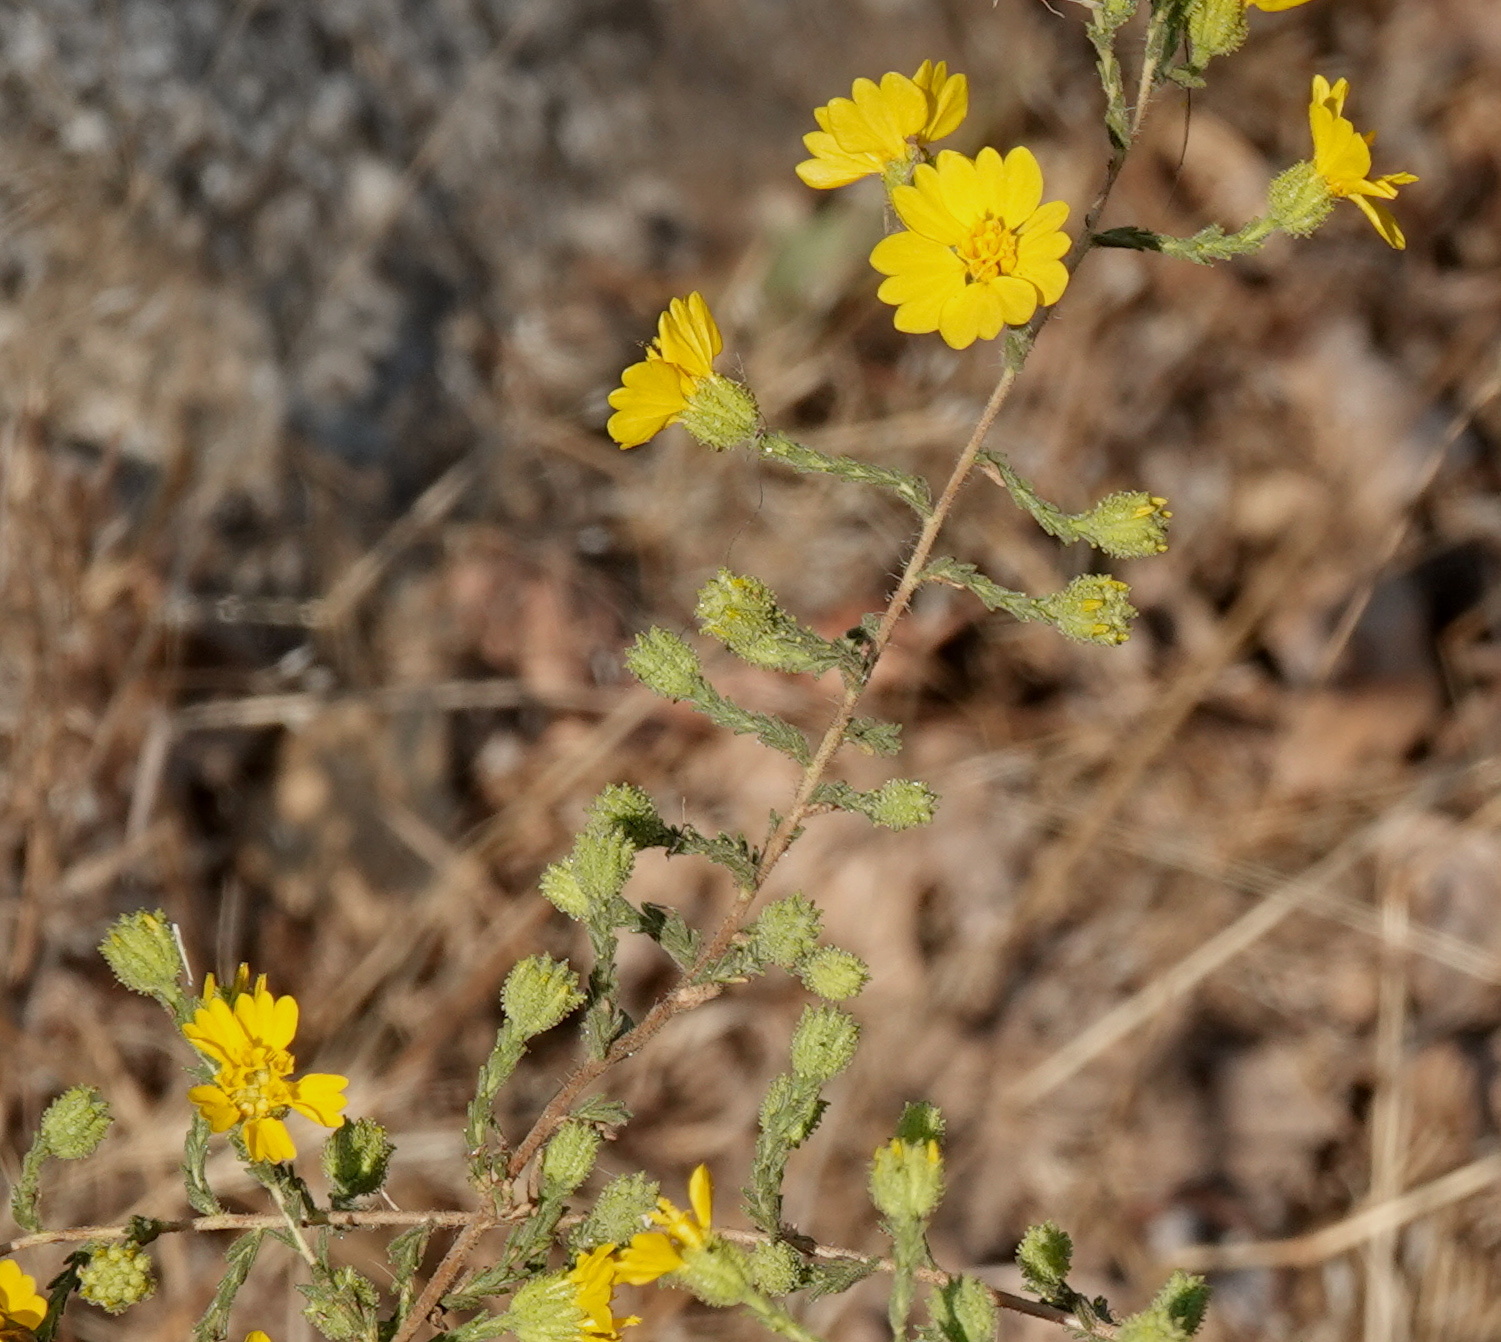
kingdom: Plantae
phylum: Tracheophyta
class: Magnoliopsida
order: Asterales
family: Asteraceae
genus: Holocarpha
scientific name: Holocarpha heermannii
